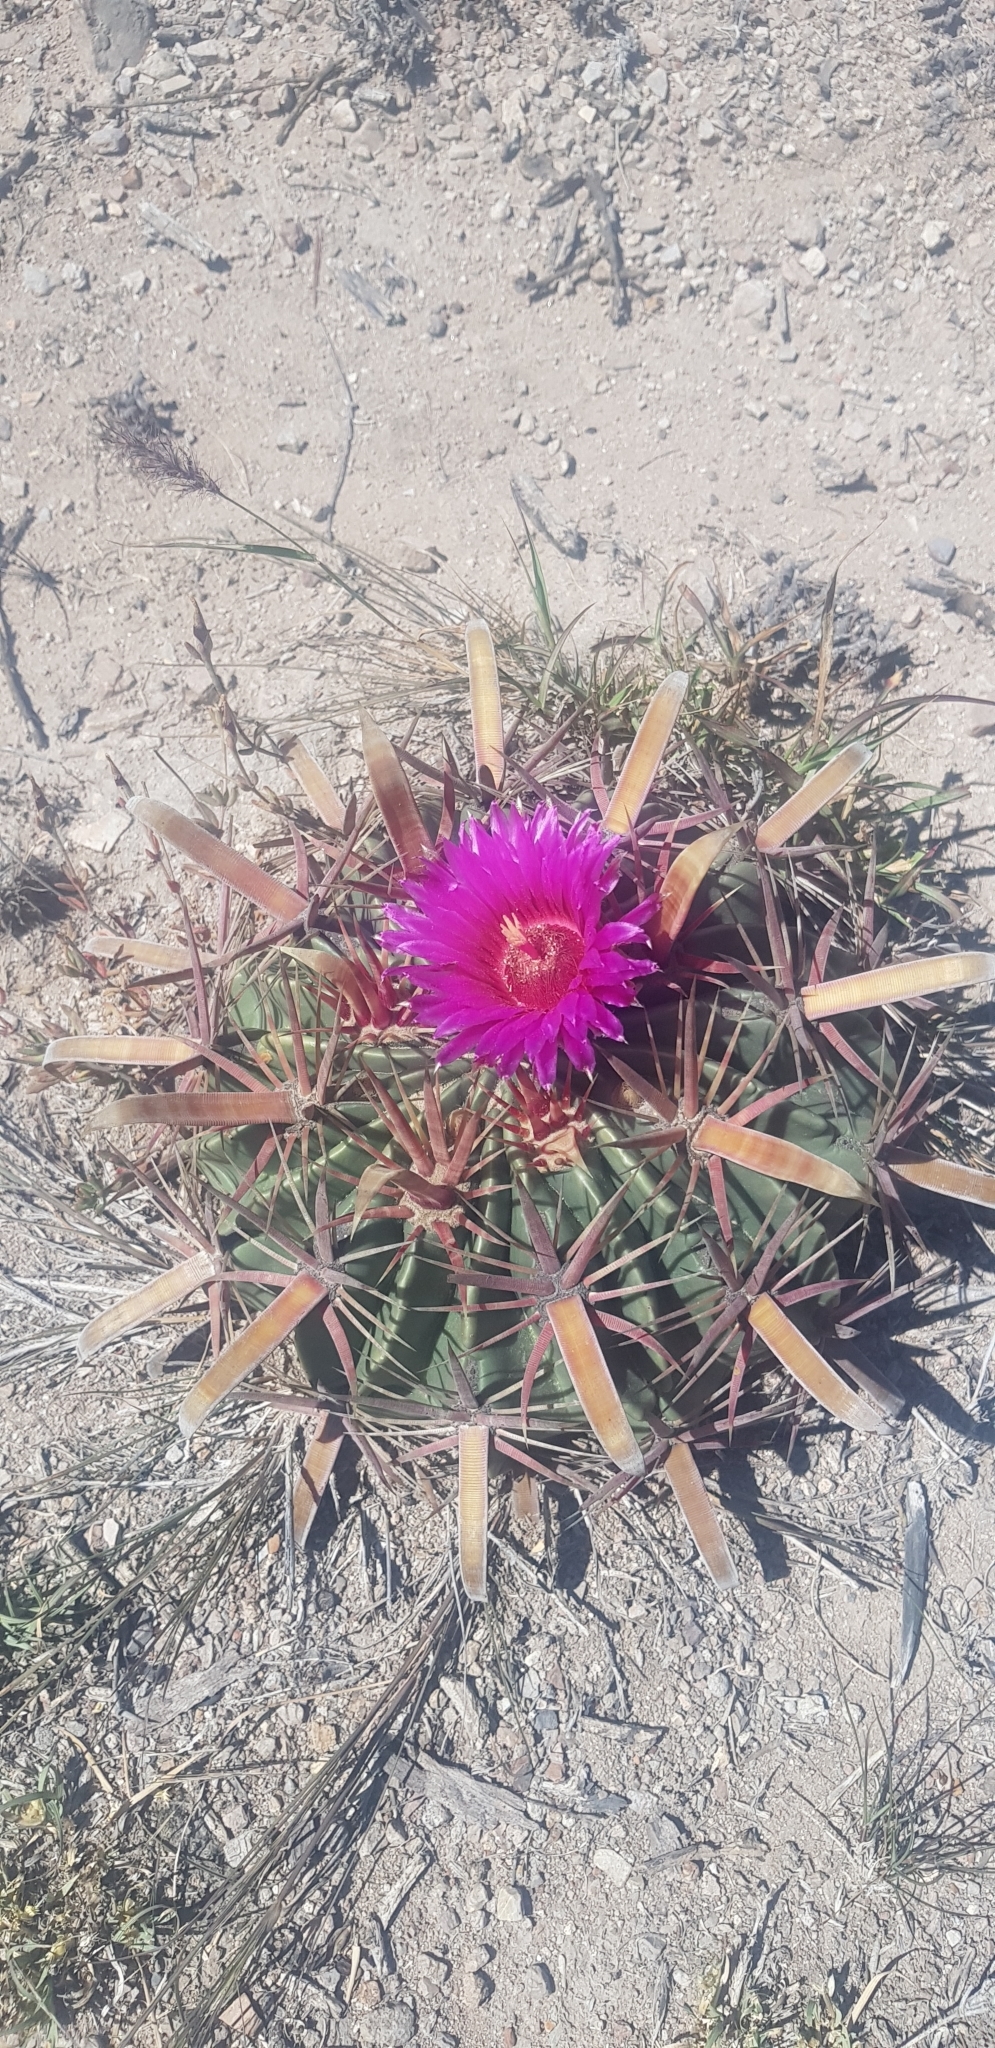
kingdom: Plantae
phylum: Tracheophyta
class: Magnoliopsida
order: Caryophyllales
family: Cactaceae
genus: Ferocactus
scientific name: Ferocactus latispinus
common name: Devil's-tongue cactus
